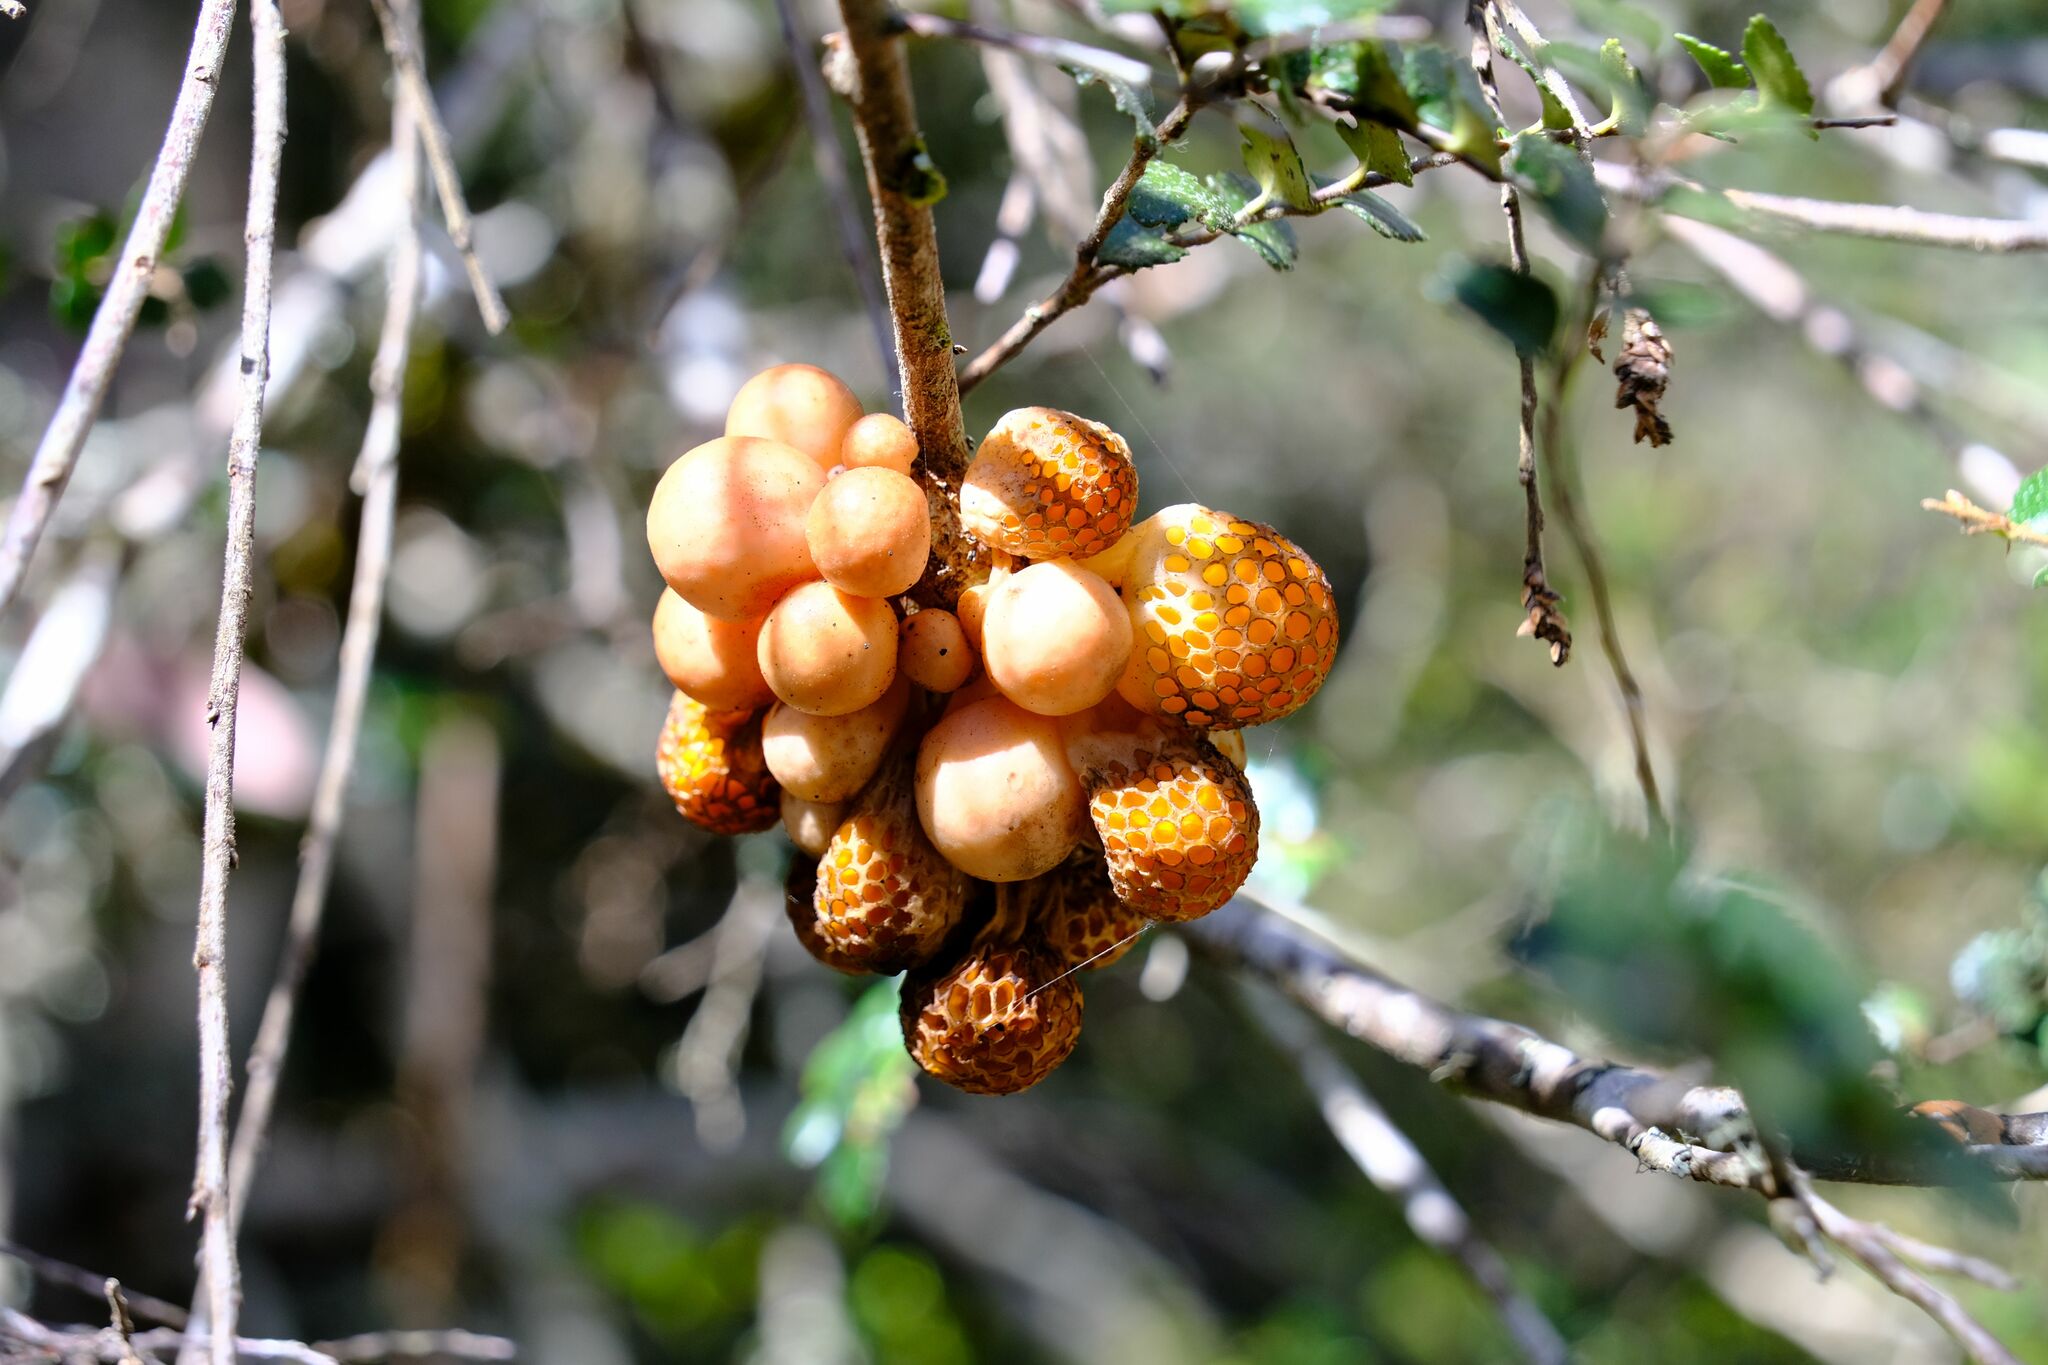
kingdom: Fungi
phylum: Ascomycota
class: Leotiomycetes
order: Cyttariales
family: Cyttariaceae
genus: Cyttaria
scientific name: Cyttaria gunnii
